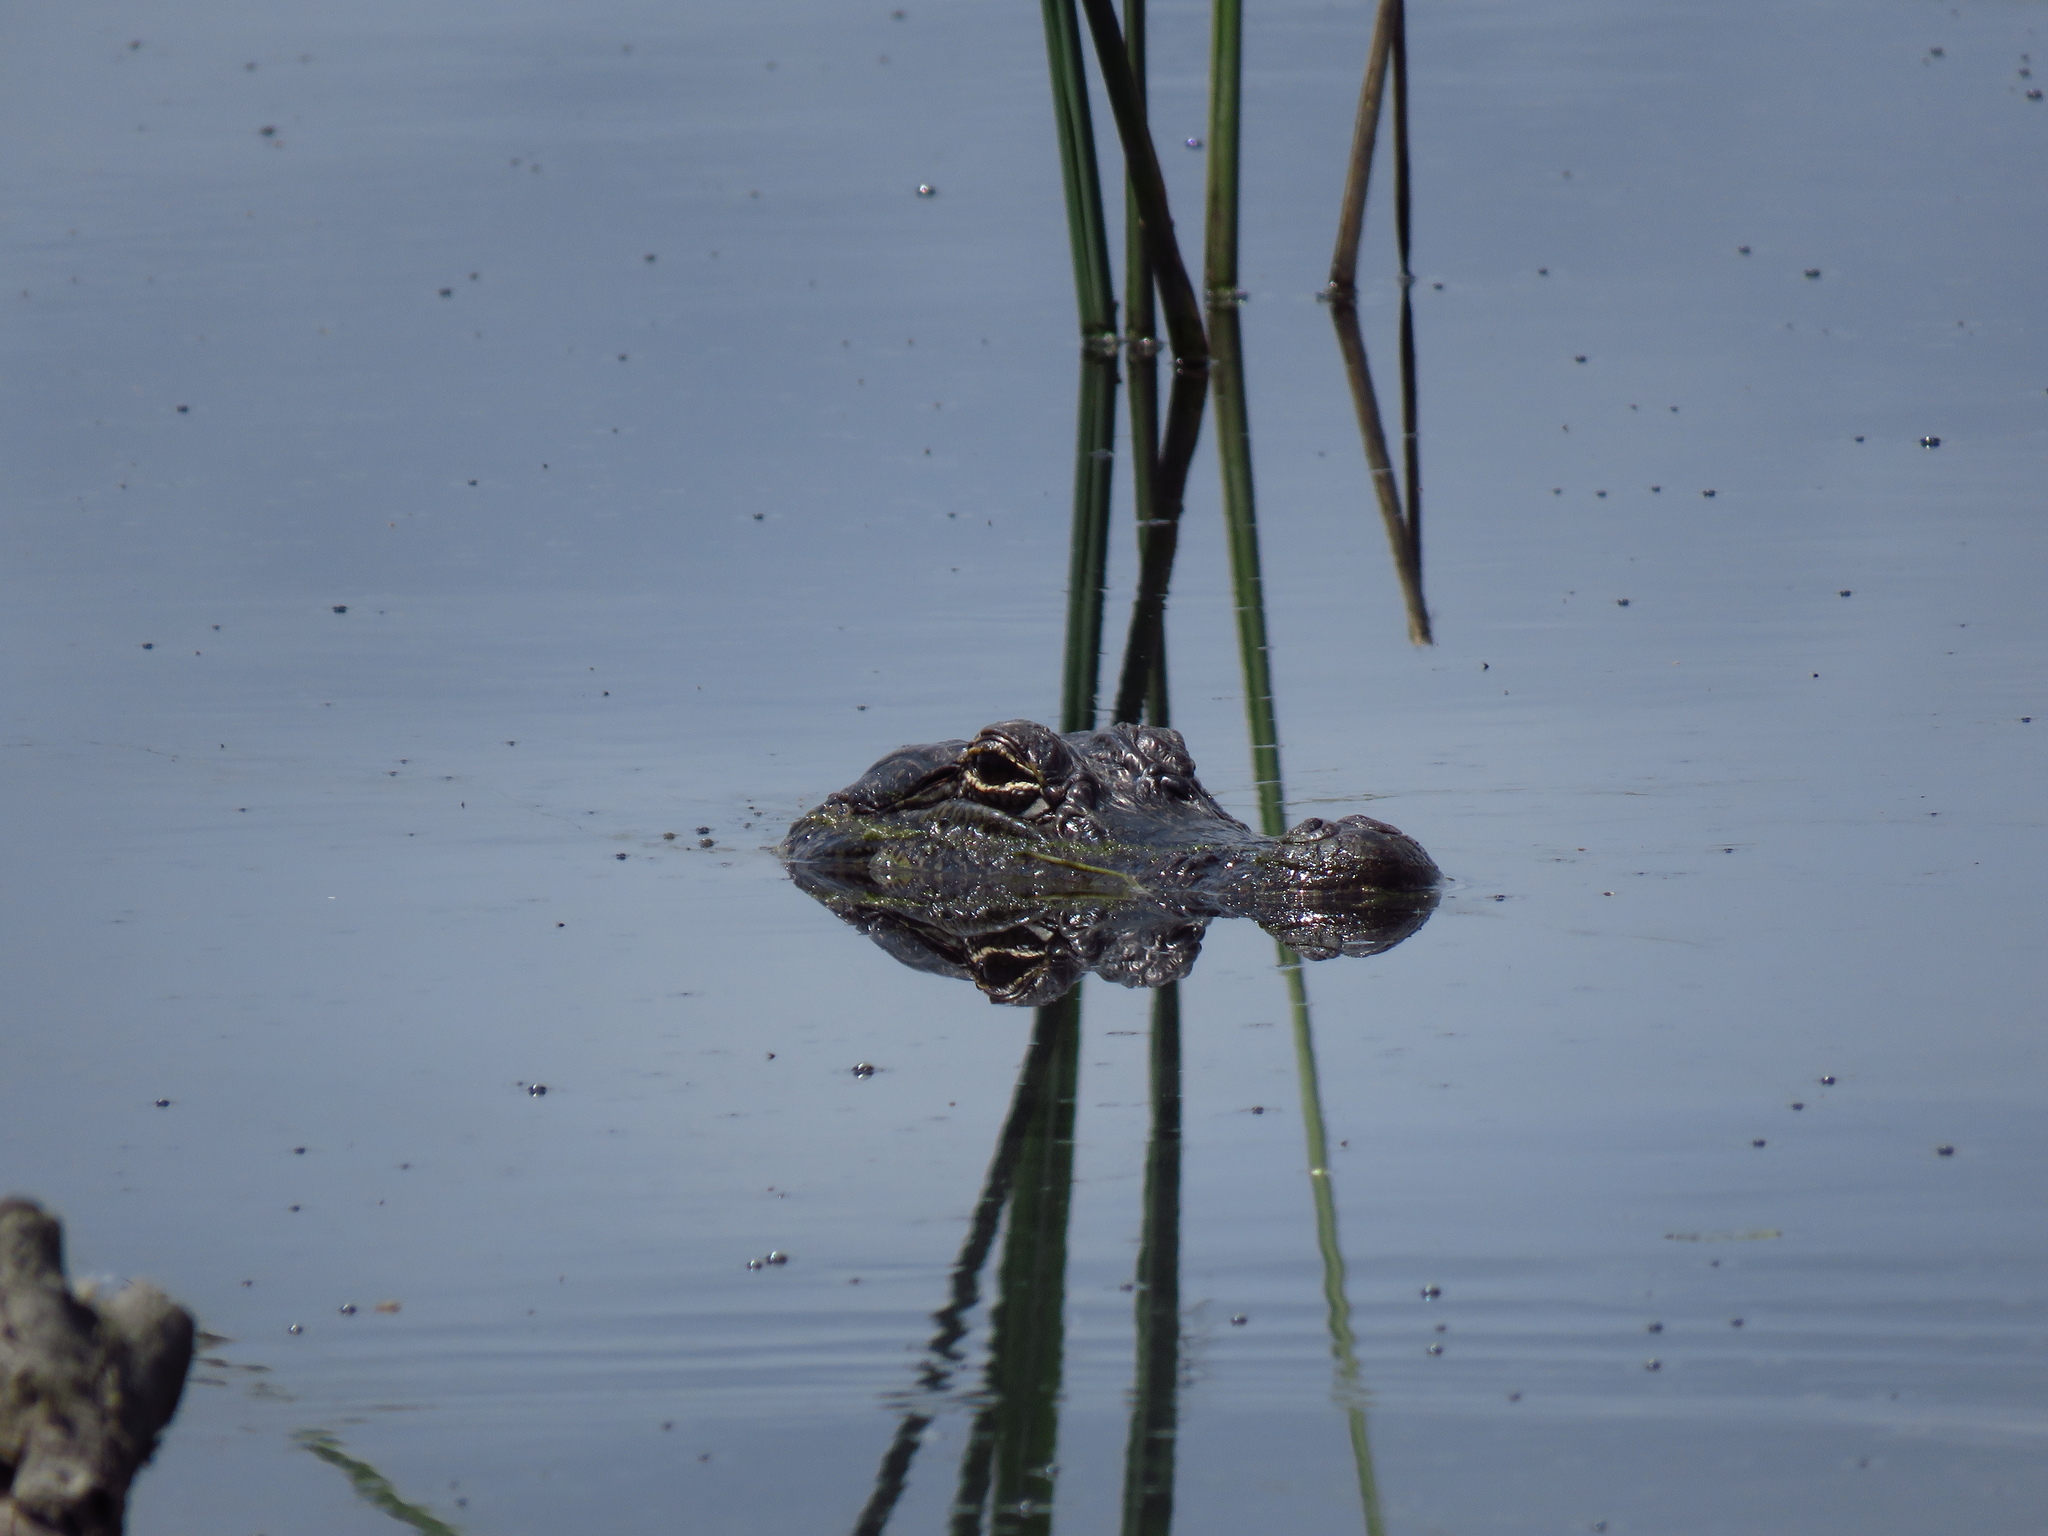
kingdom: Animalia
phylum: Chordata
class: Crocodylia
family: Alligatoridae
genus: Alligator
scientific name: Alligator mississippiensis
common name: American alligator
